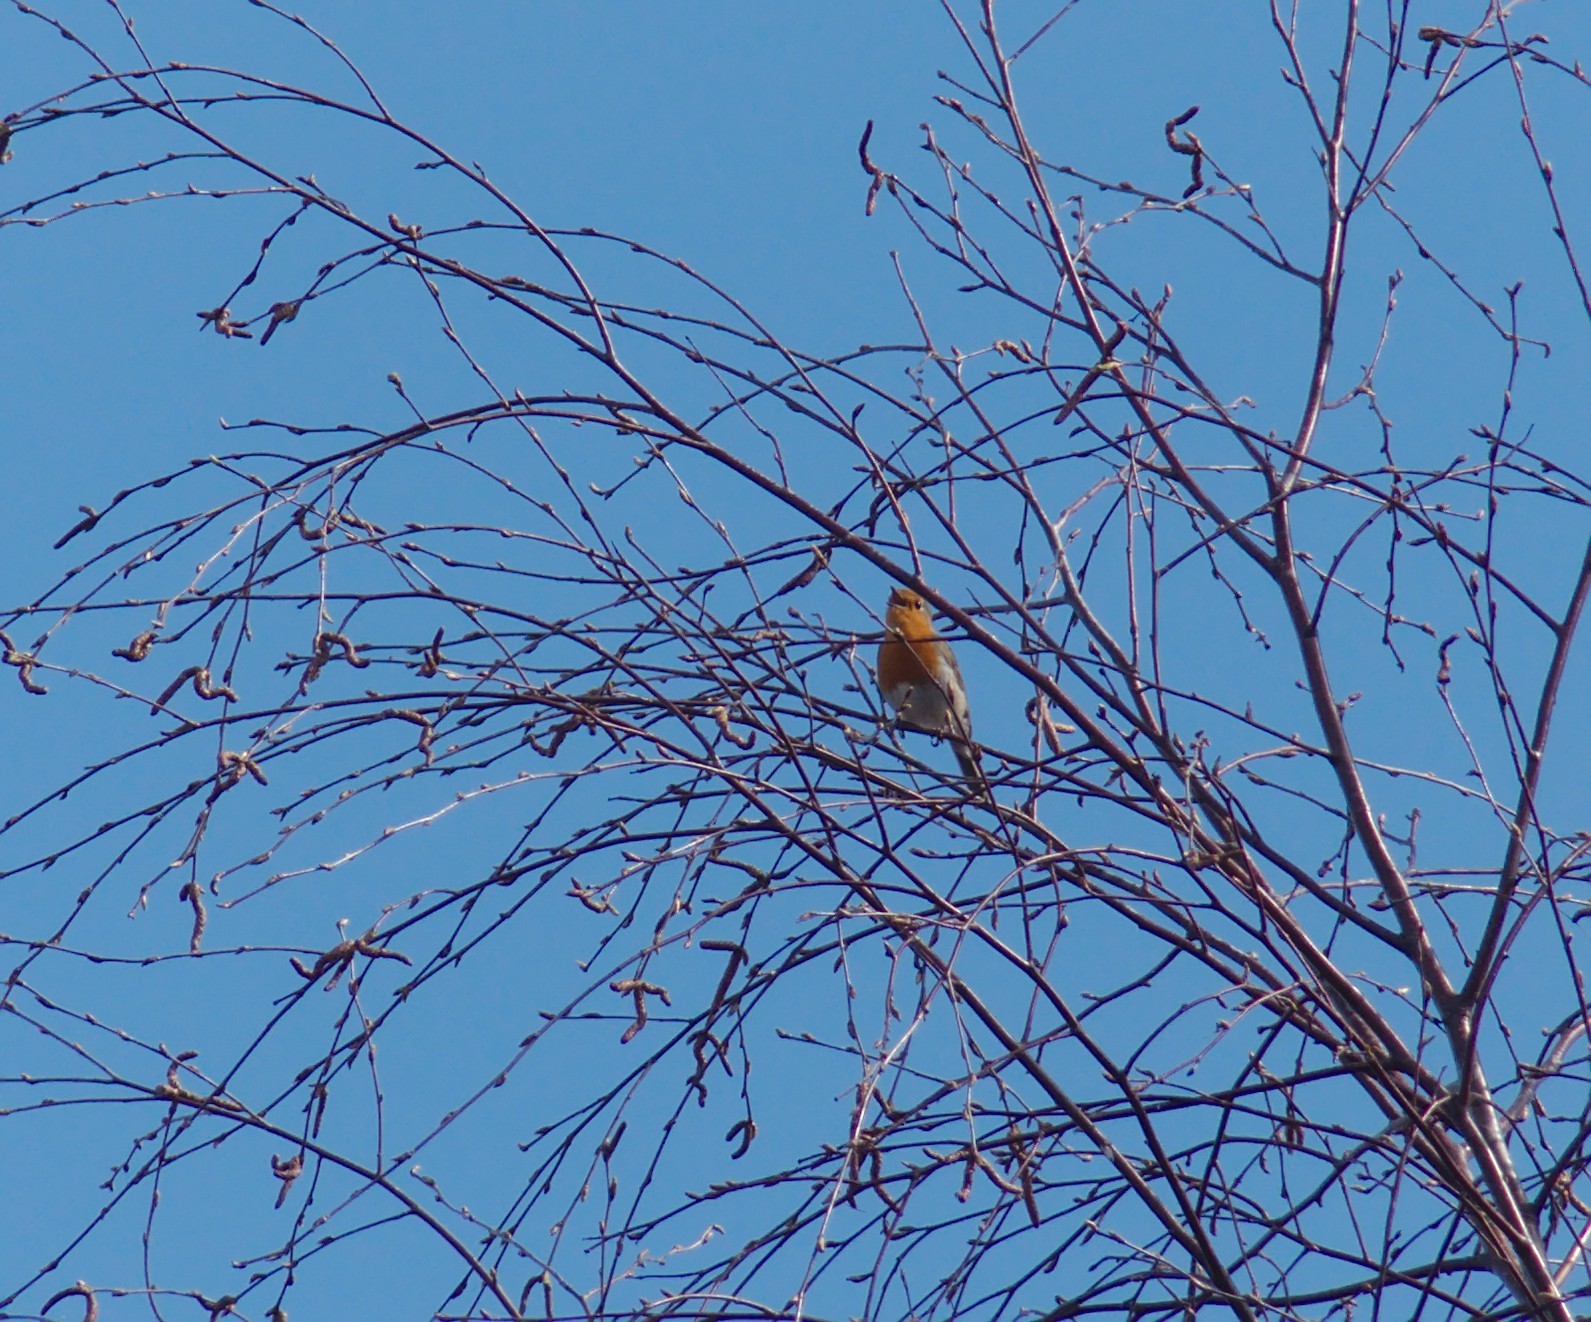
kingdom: Animalia
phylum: Chordata
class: Aves
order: Passeriformes
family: Muscicapidae
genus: Erithacus
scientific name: Erithacus rubecula
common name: European robin
